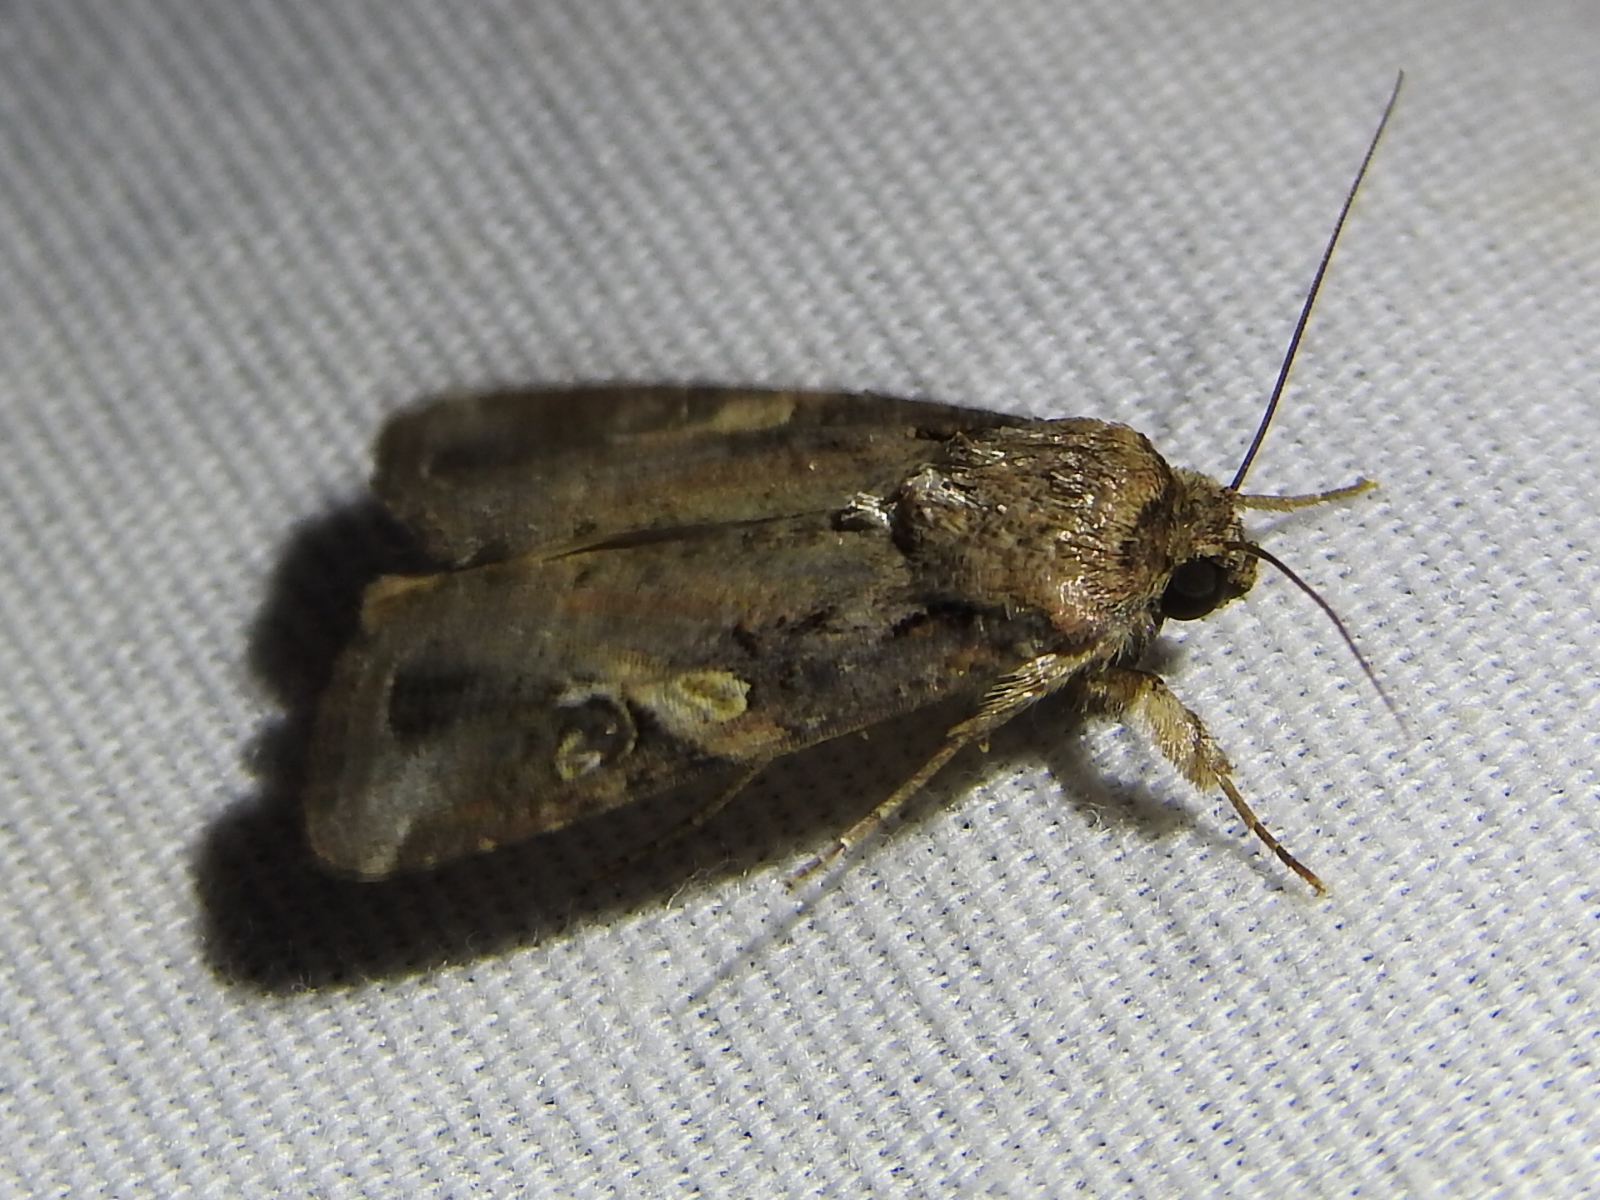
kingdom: Animalia
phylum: Arthropoda
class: Insecta
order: Lepidoptera
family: Noctuidae
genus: Spodoptera
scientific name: Spodoptera frugiperda
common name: Fall armyworm
